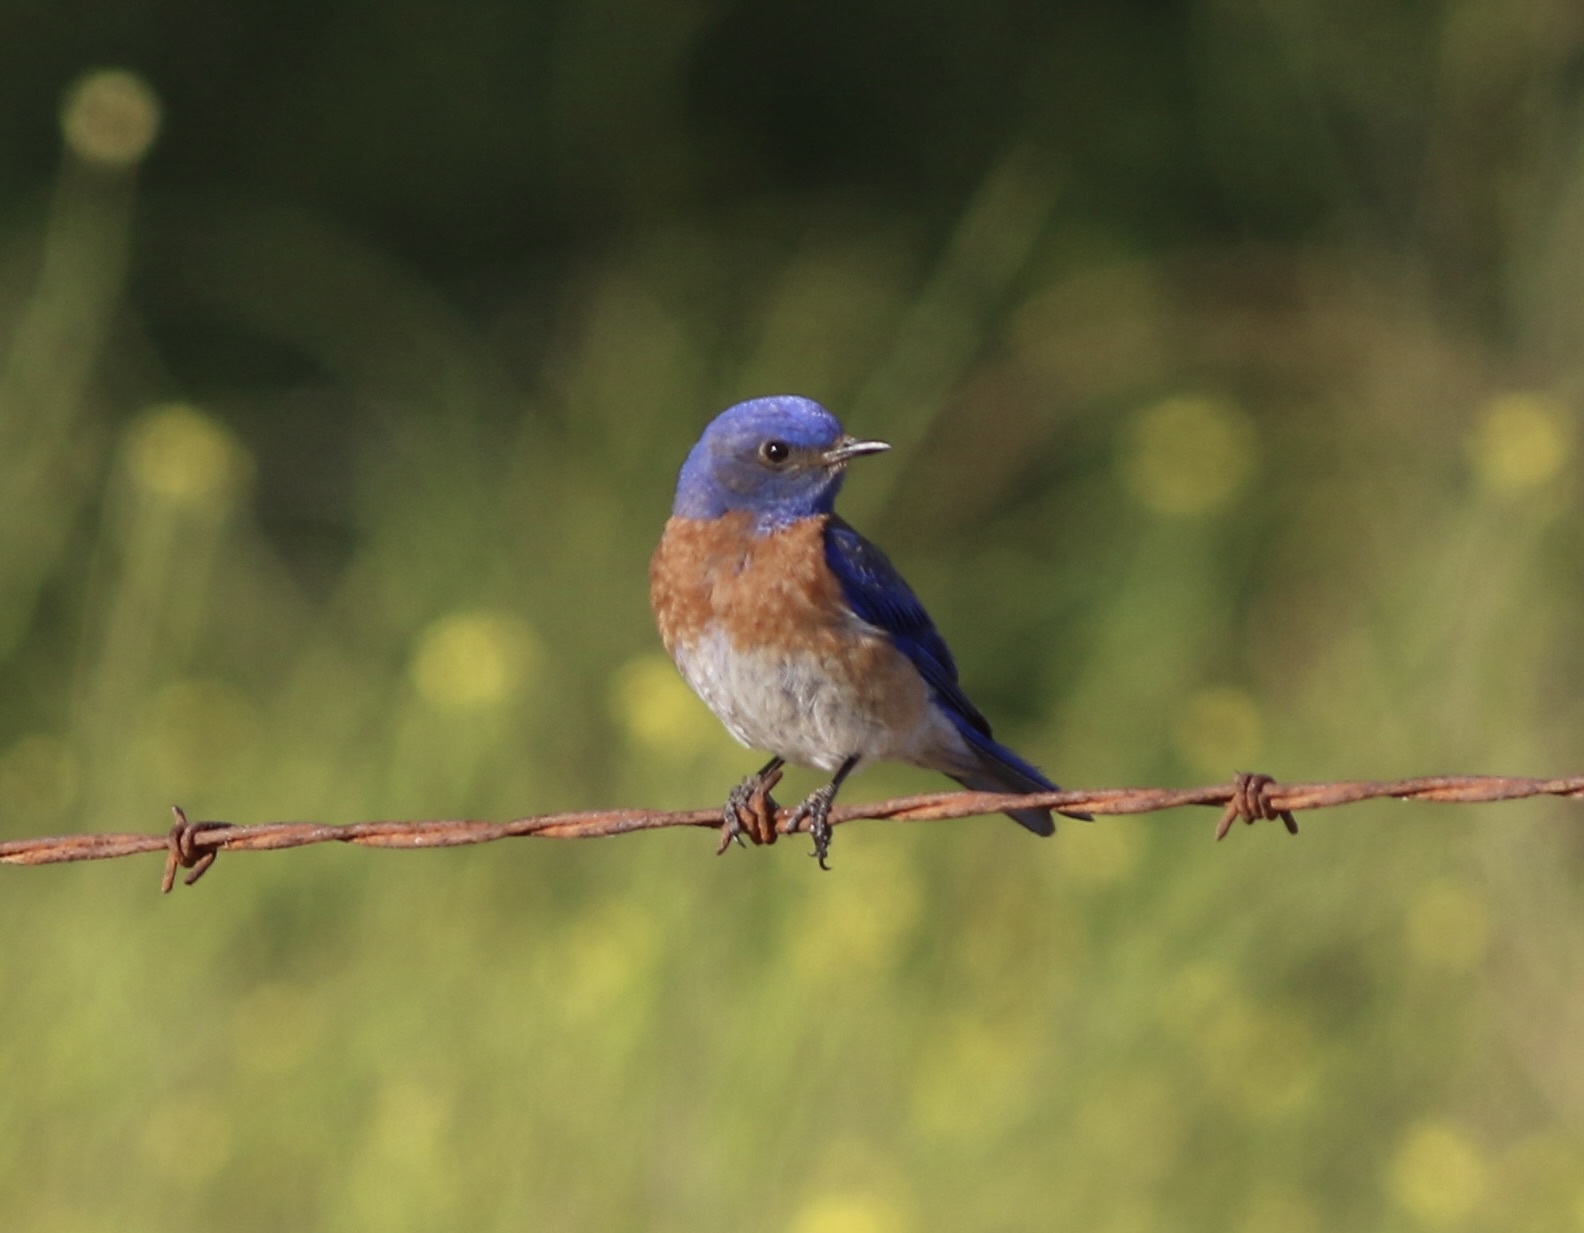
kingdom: Animalia
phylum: Chordata
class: Aves
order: Passeriformes
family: Turdidae
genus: Sialia
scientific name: Sialia mexicana
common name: Western bluebird
